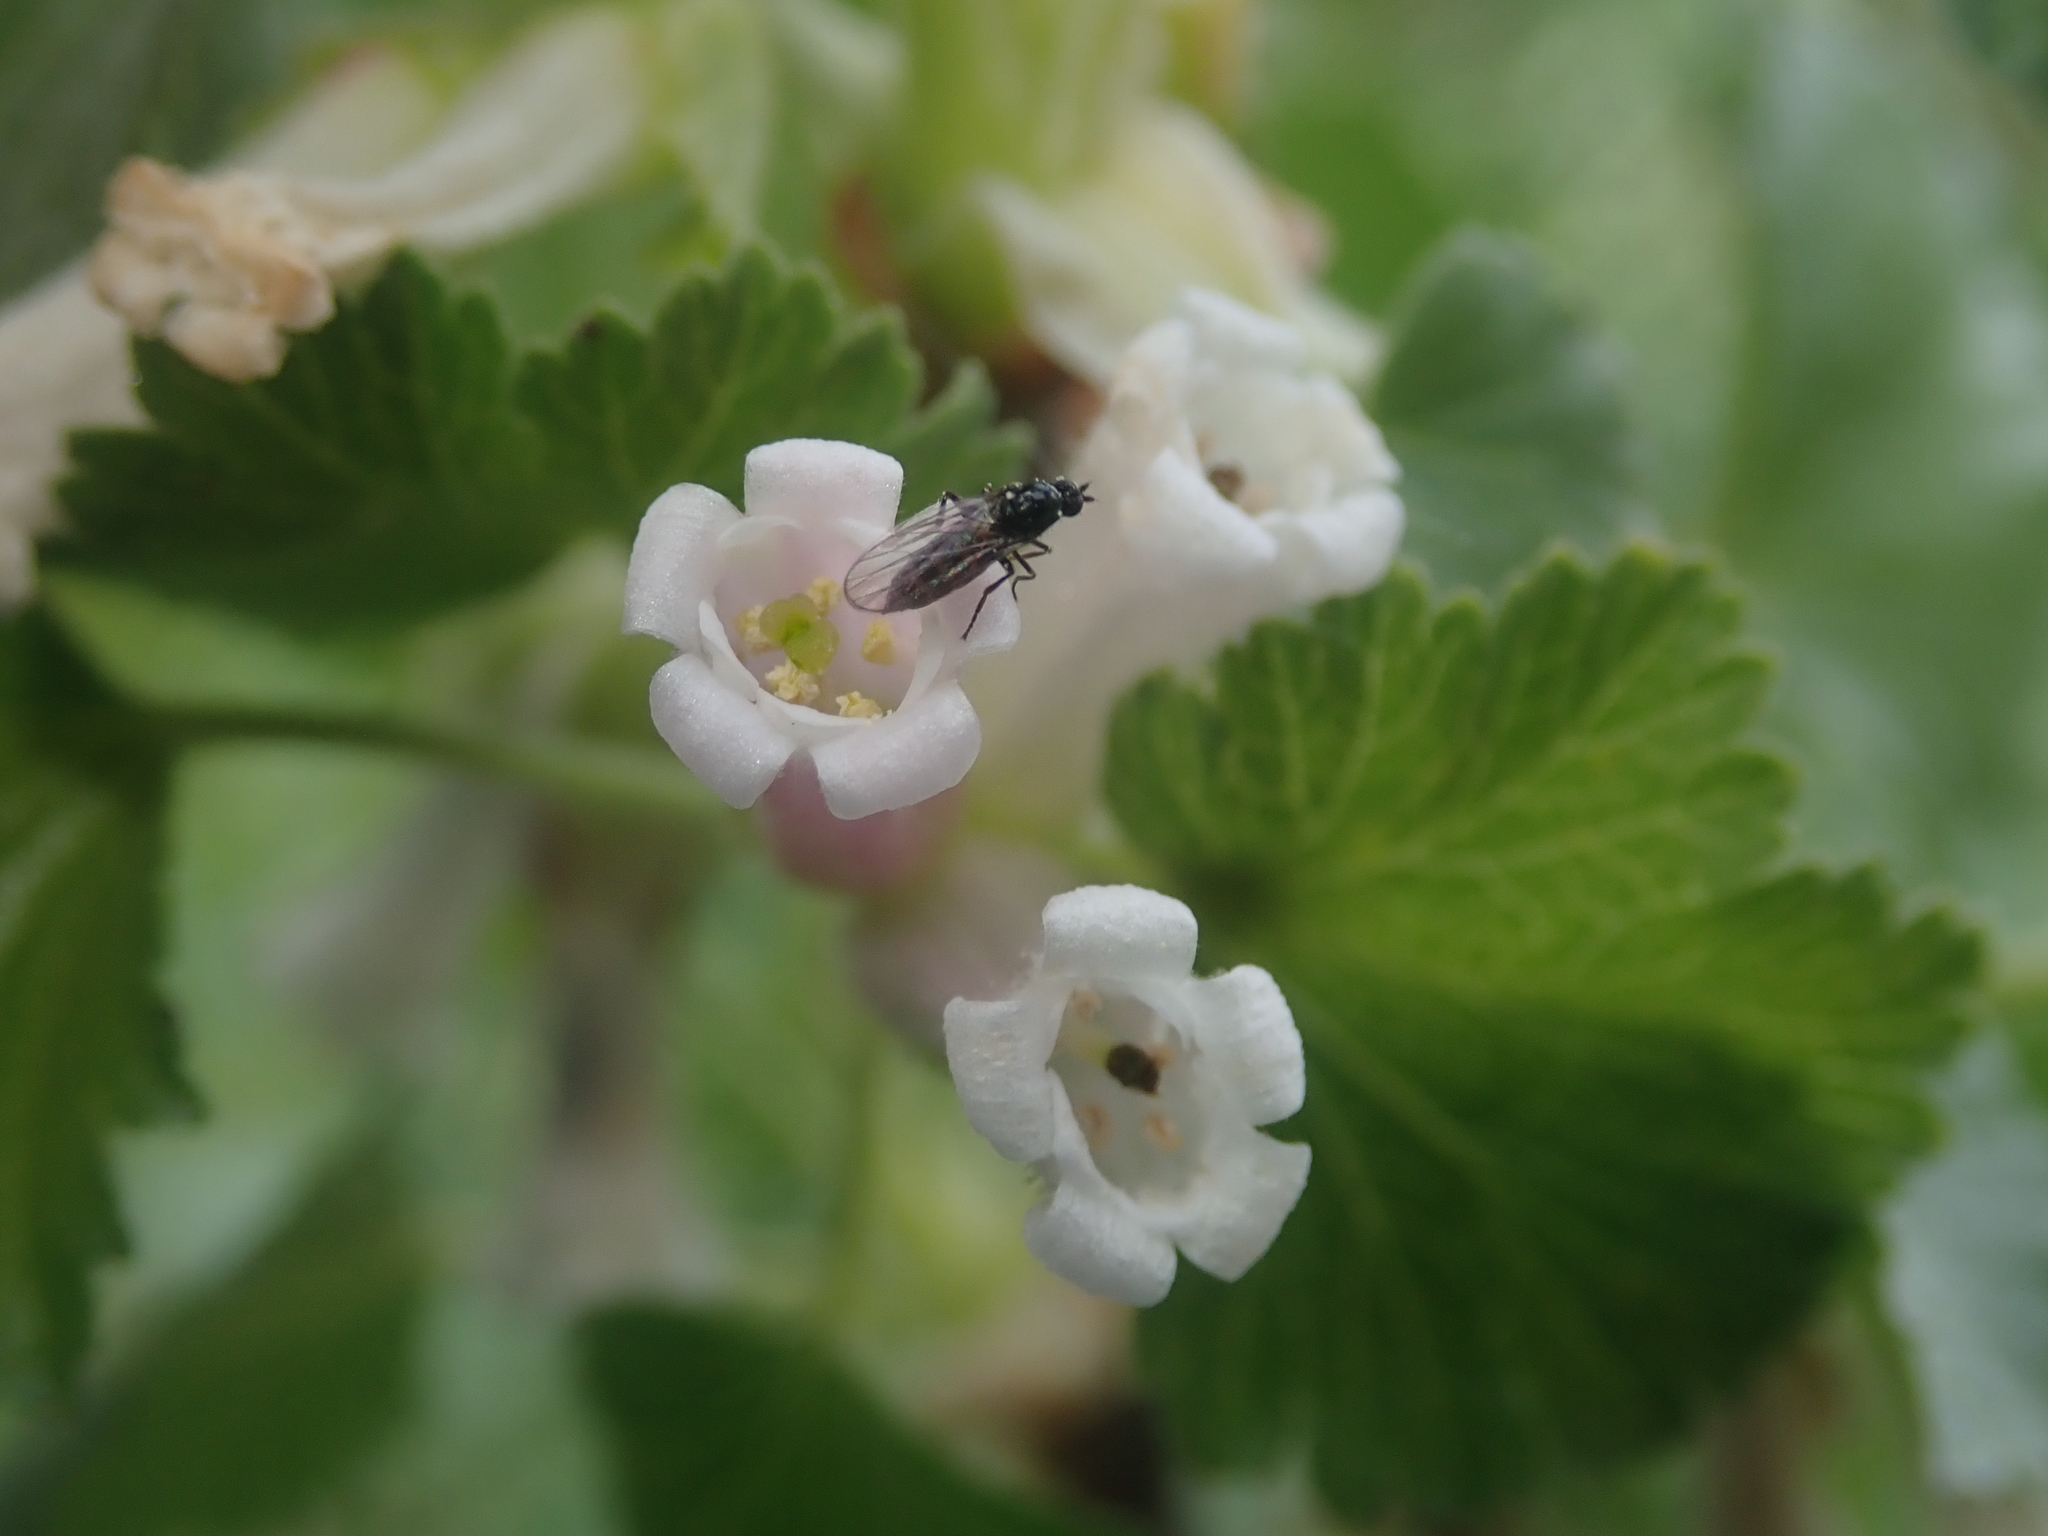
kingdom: Plantae
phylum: Tracheophyta
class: Magnoliopsida
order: Saxifragales
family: Grossulariaceae
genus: Ribes
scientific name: Ribes cereum
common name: Wax currant
